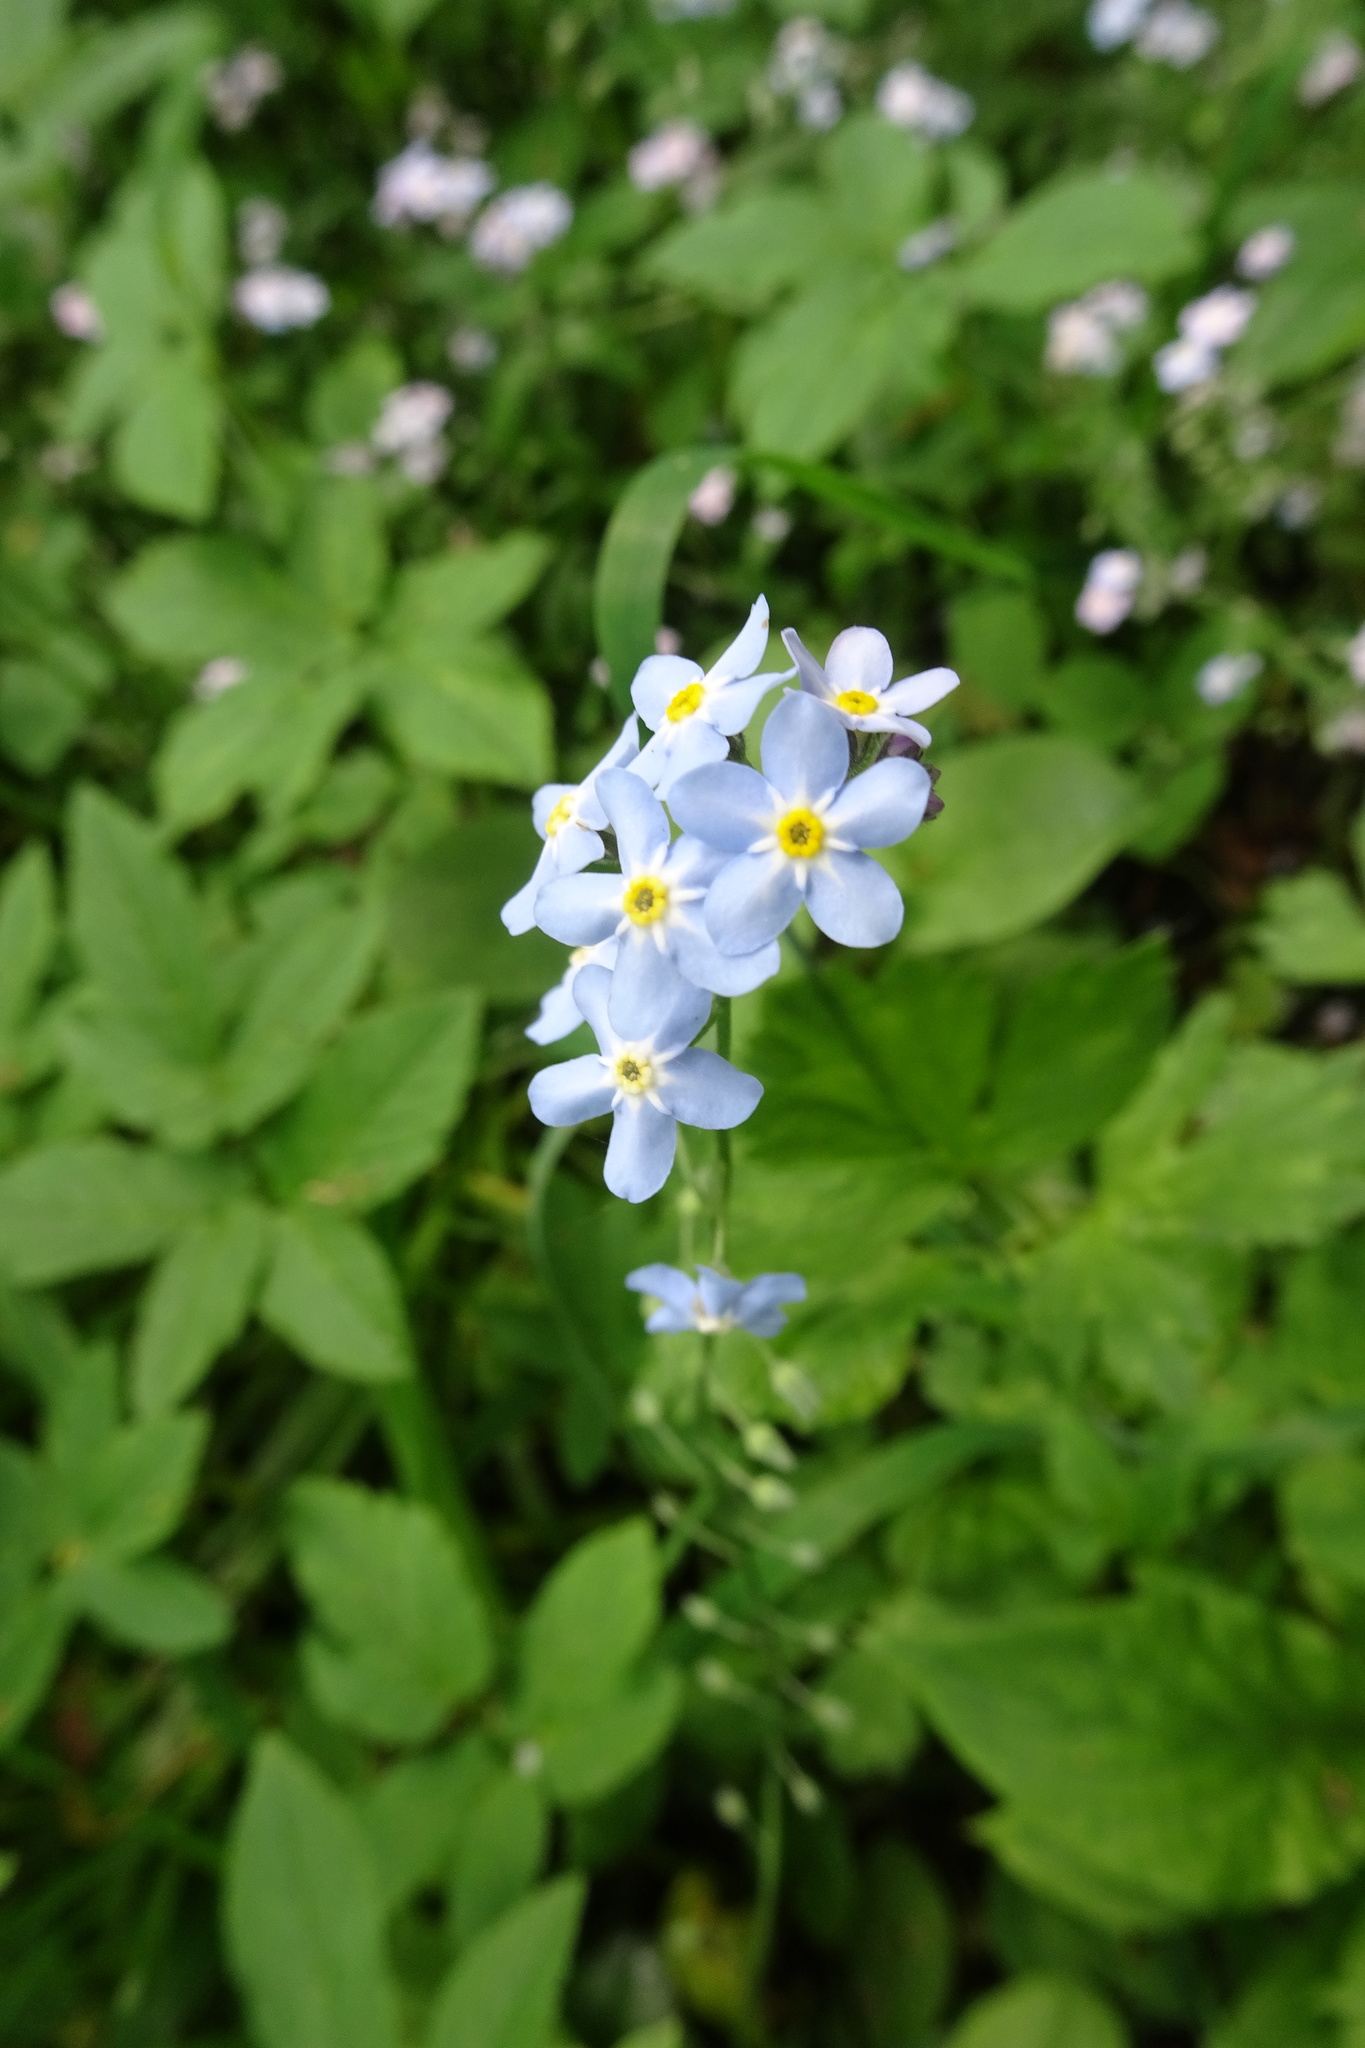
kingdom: Plantae
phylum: Tracheophyta
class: Magnoliopsida
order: Boraginales
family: Boraginaceae
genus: Myosotis
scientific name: Myosotis sylvatica
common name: Wood forget-me-not
